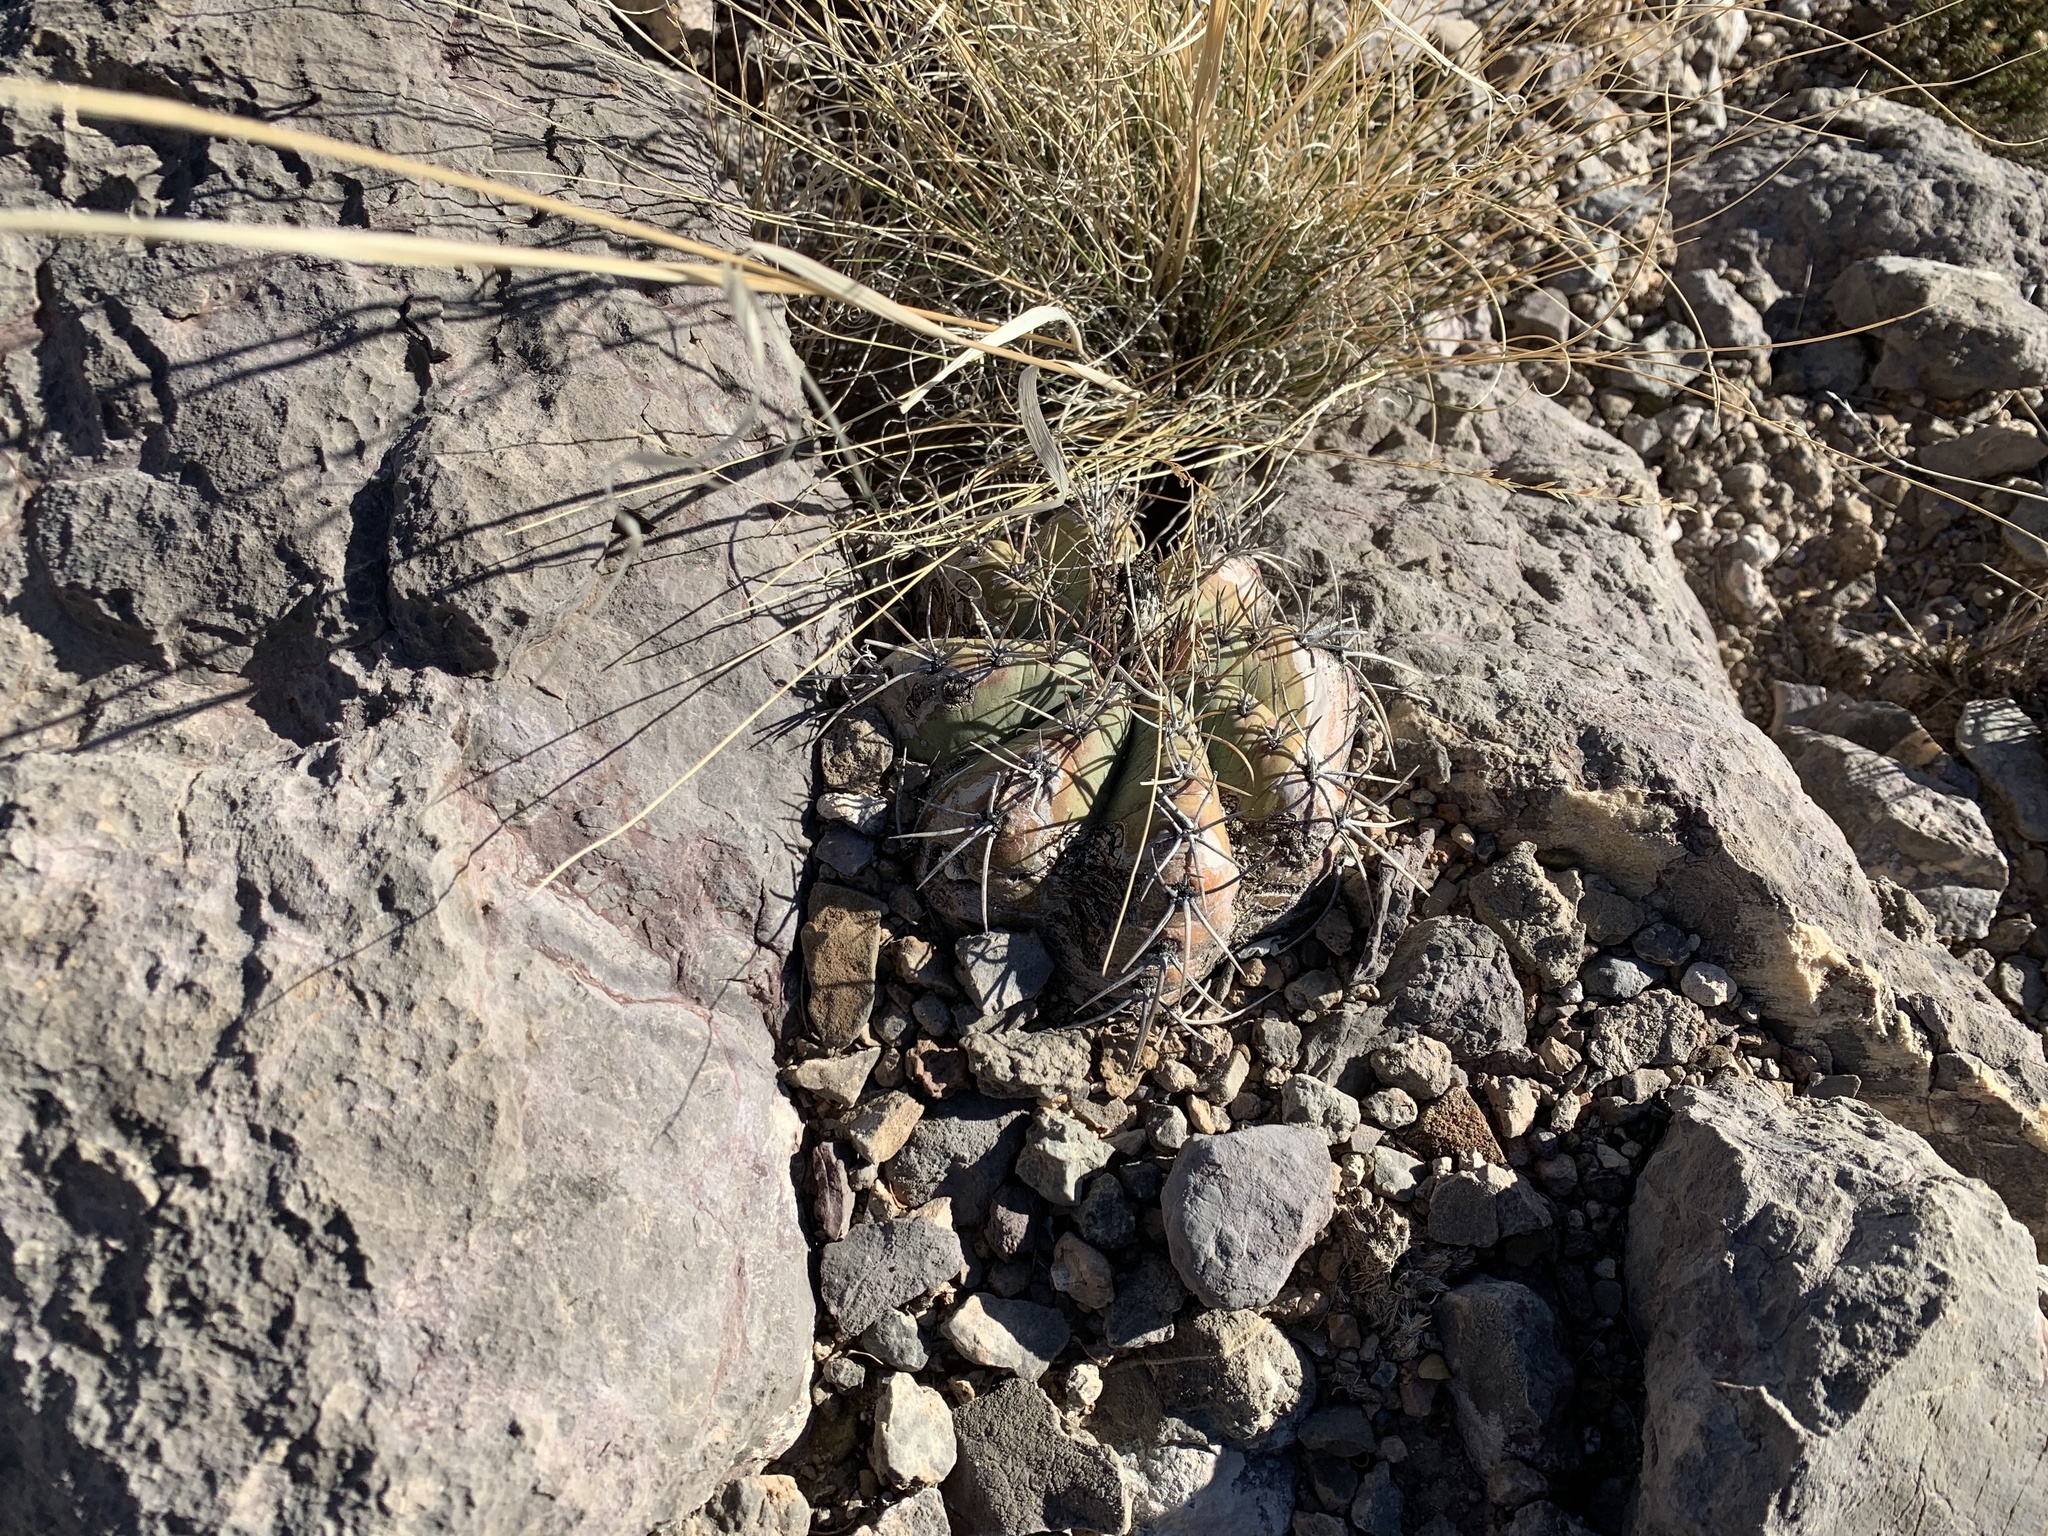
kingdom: Plantae
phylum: Tracheophyta
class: Magnoliopsida
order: Caryophyllales
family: Cactaceae
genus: Echinocactus
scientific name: Echinocactus horizonthalonius
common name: Devilshead
